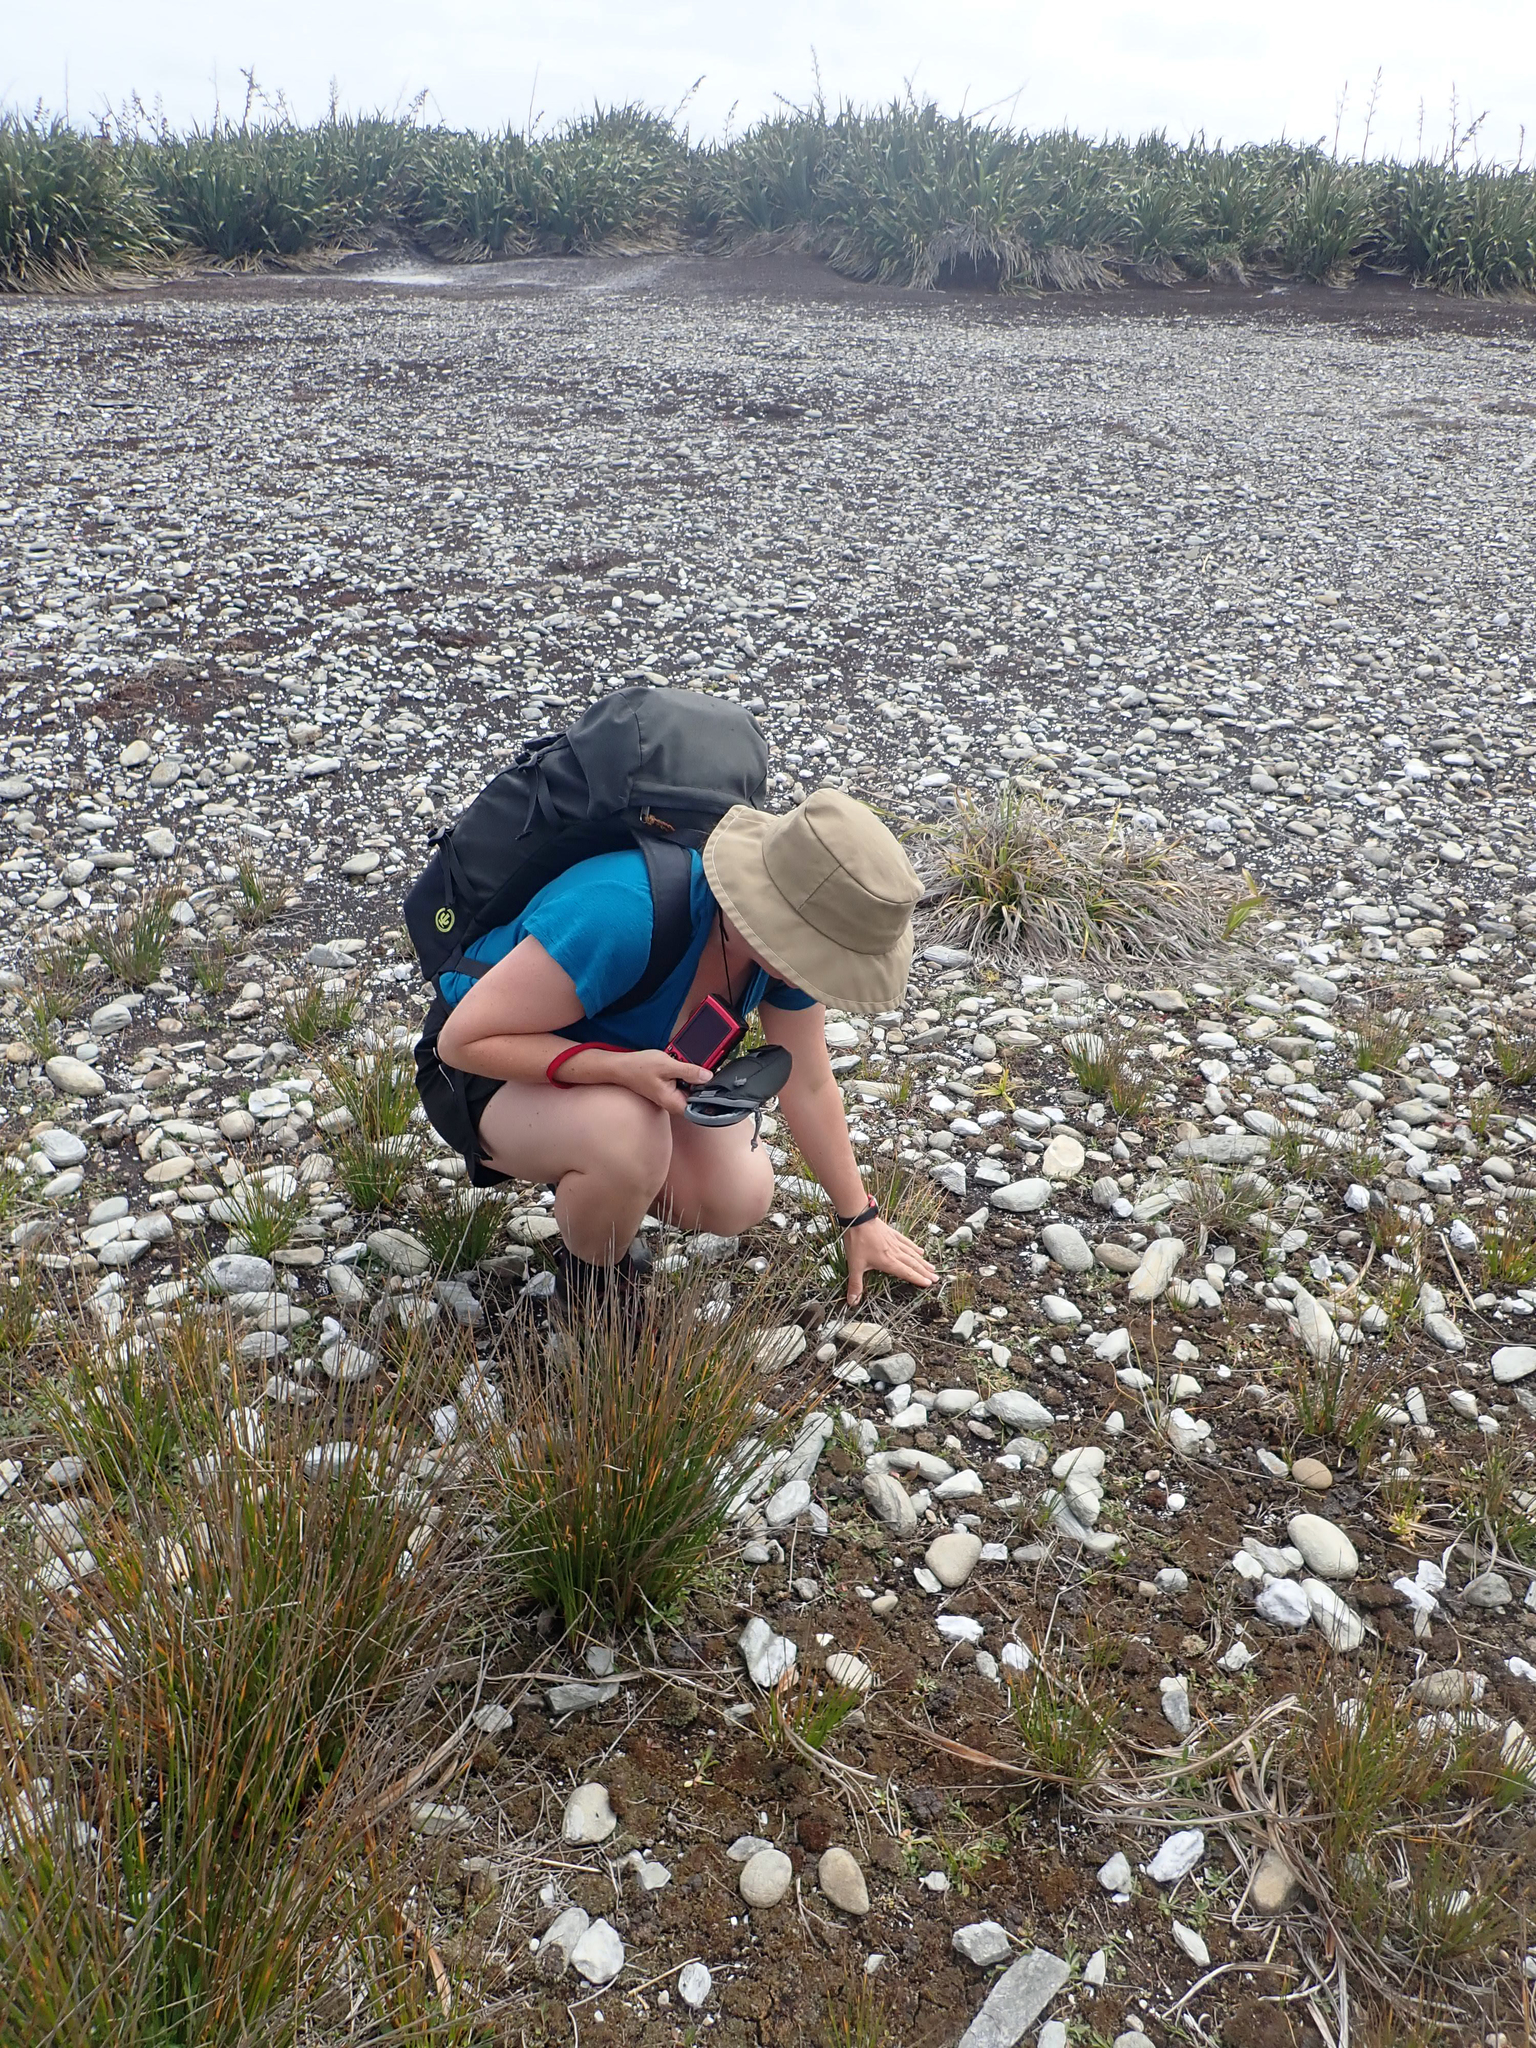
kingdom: Fungi
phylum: Ascomycota
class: Lecanoromycetes
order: Lecanorales
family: Cladoniaceae
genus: Cladia
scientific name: Cladia blanchonii
